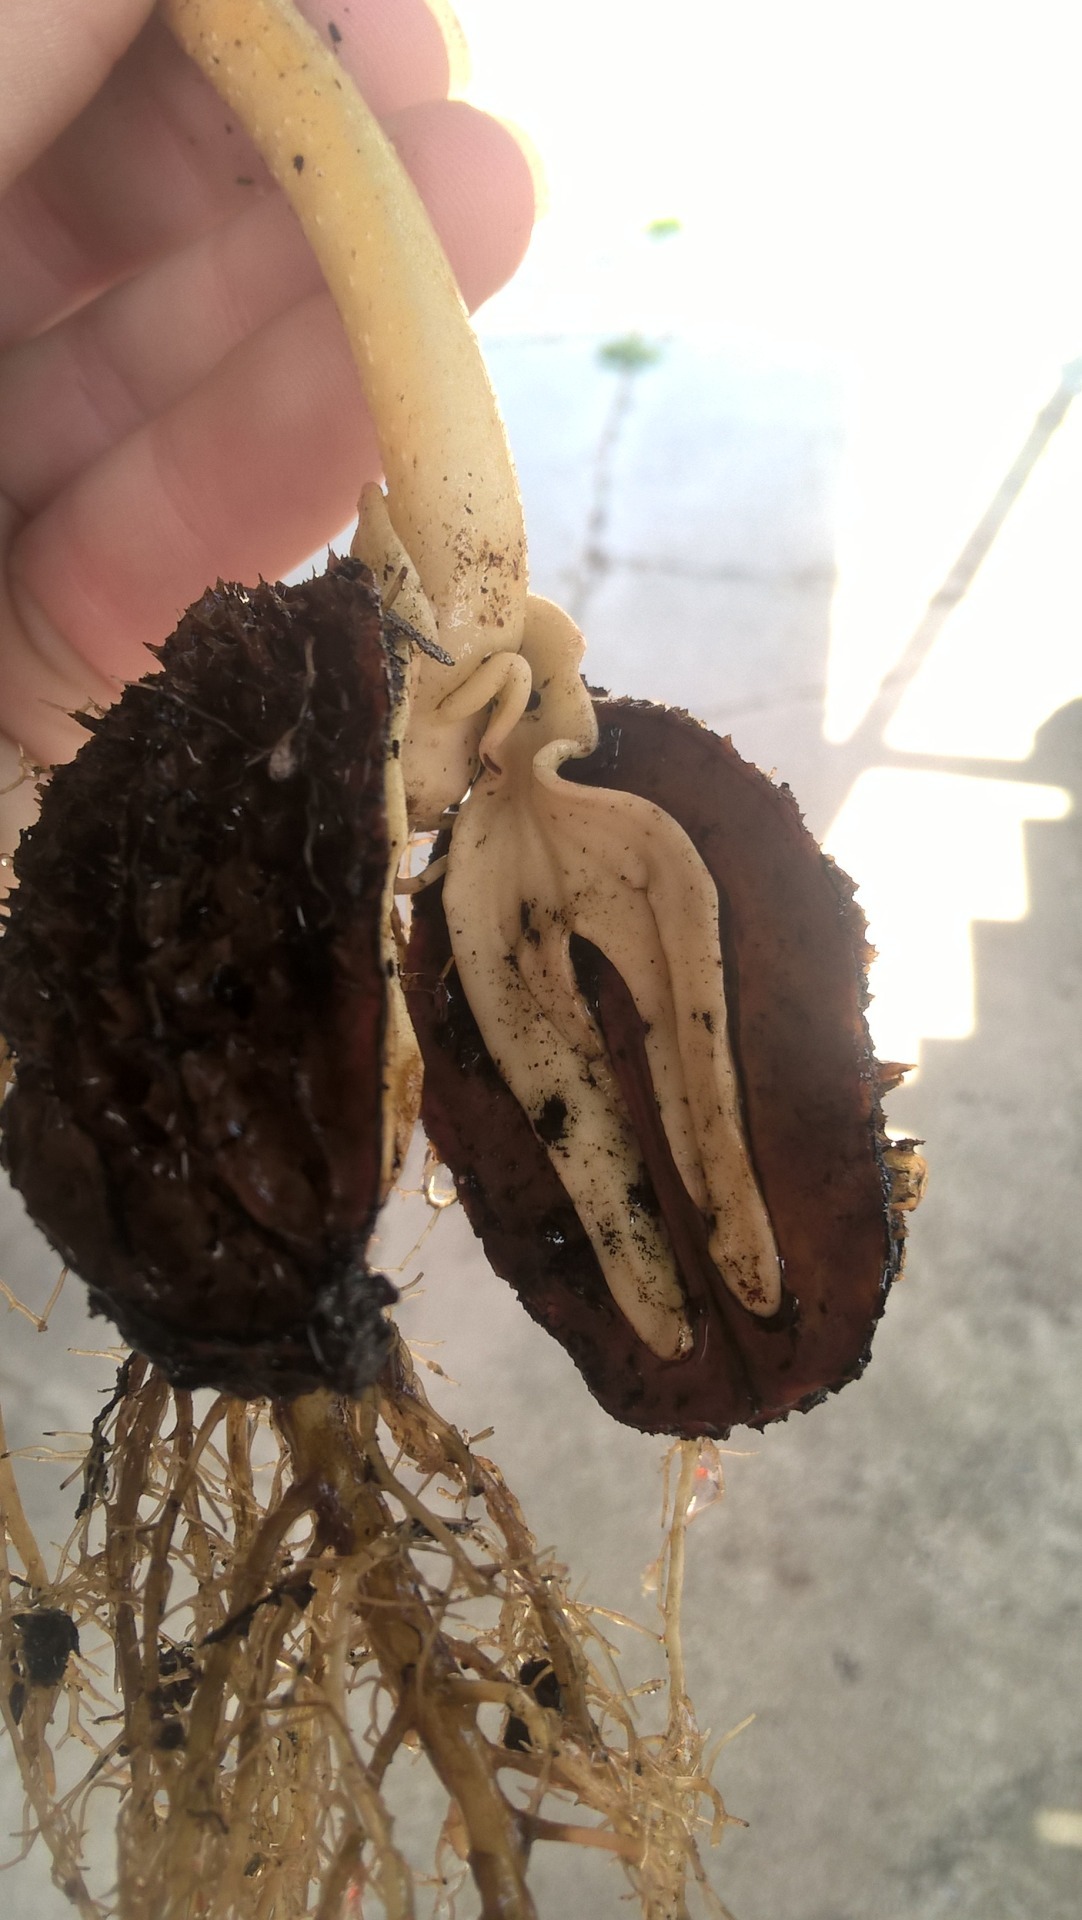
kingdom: Plantae
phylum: Tracheophyta
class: Magnoliopsida
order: Fagales
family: Juglandaceae
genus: Juglans
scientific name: Juglans cinerea
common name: Butternut
